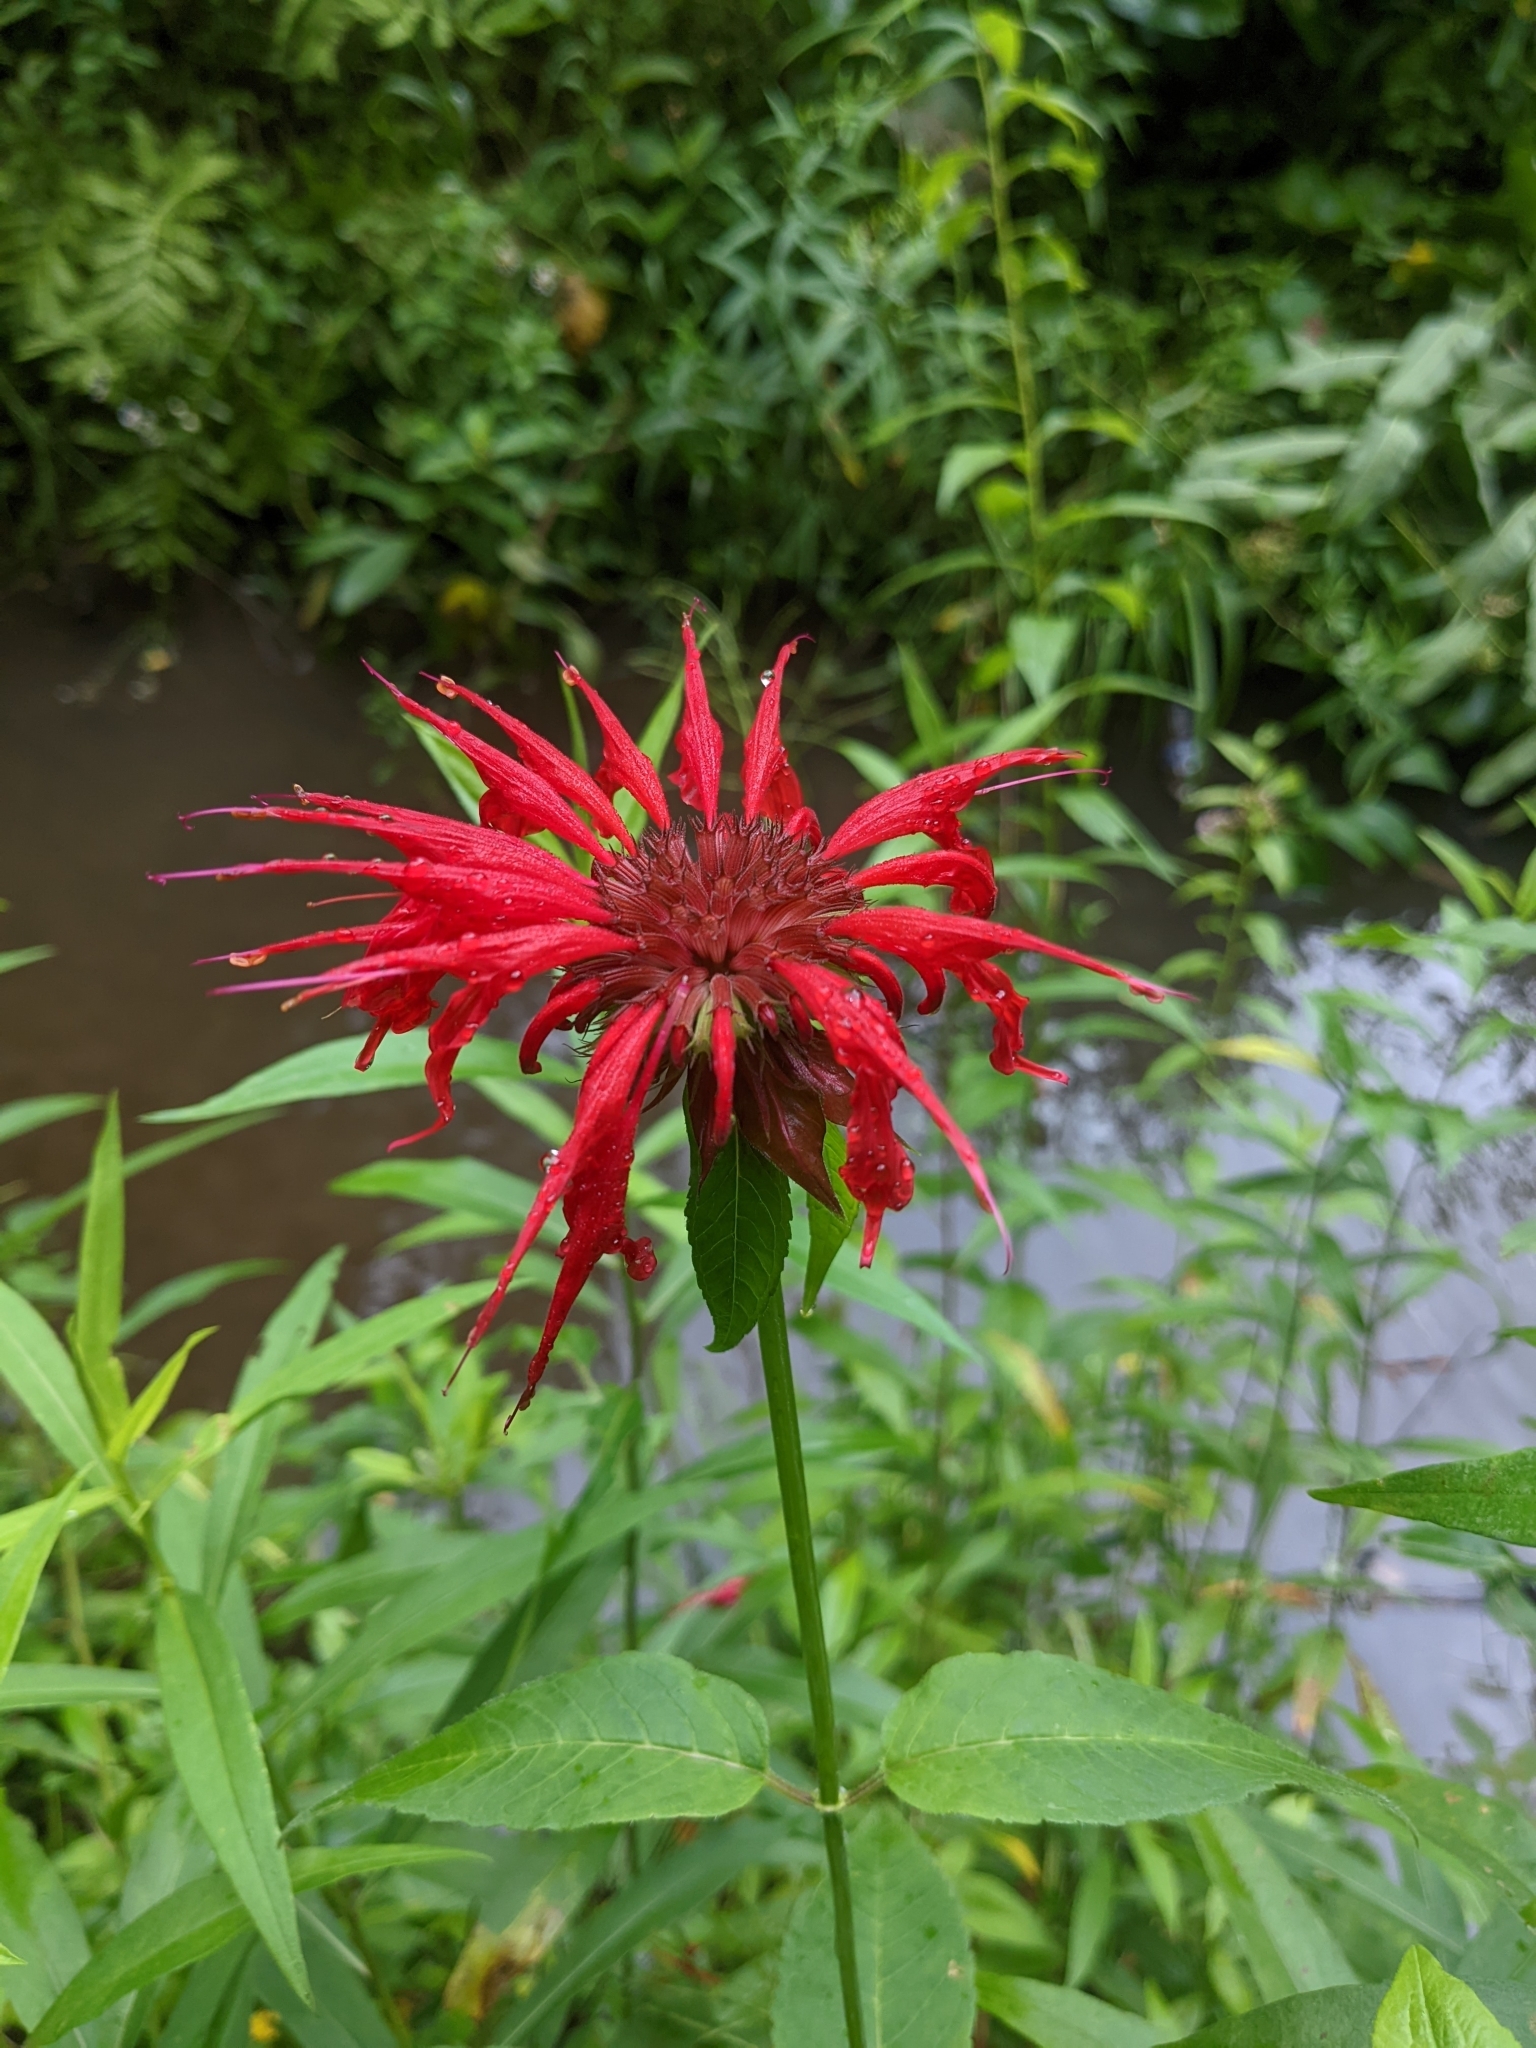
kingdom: Plantae
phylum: Tracheophyta
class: Magnoliopsida
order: Lamiales
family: Lamiaceae
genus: Monarda
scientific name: Monarda didyma
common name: Beebalm
